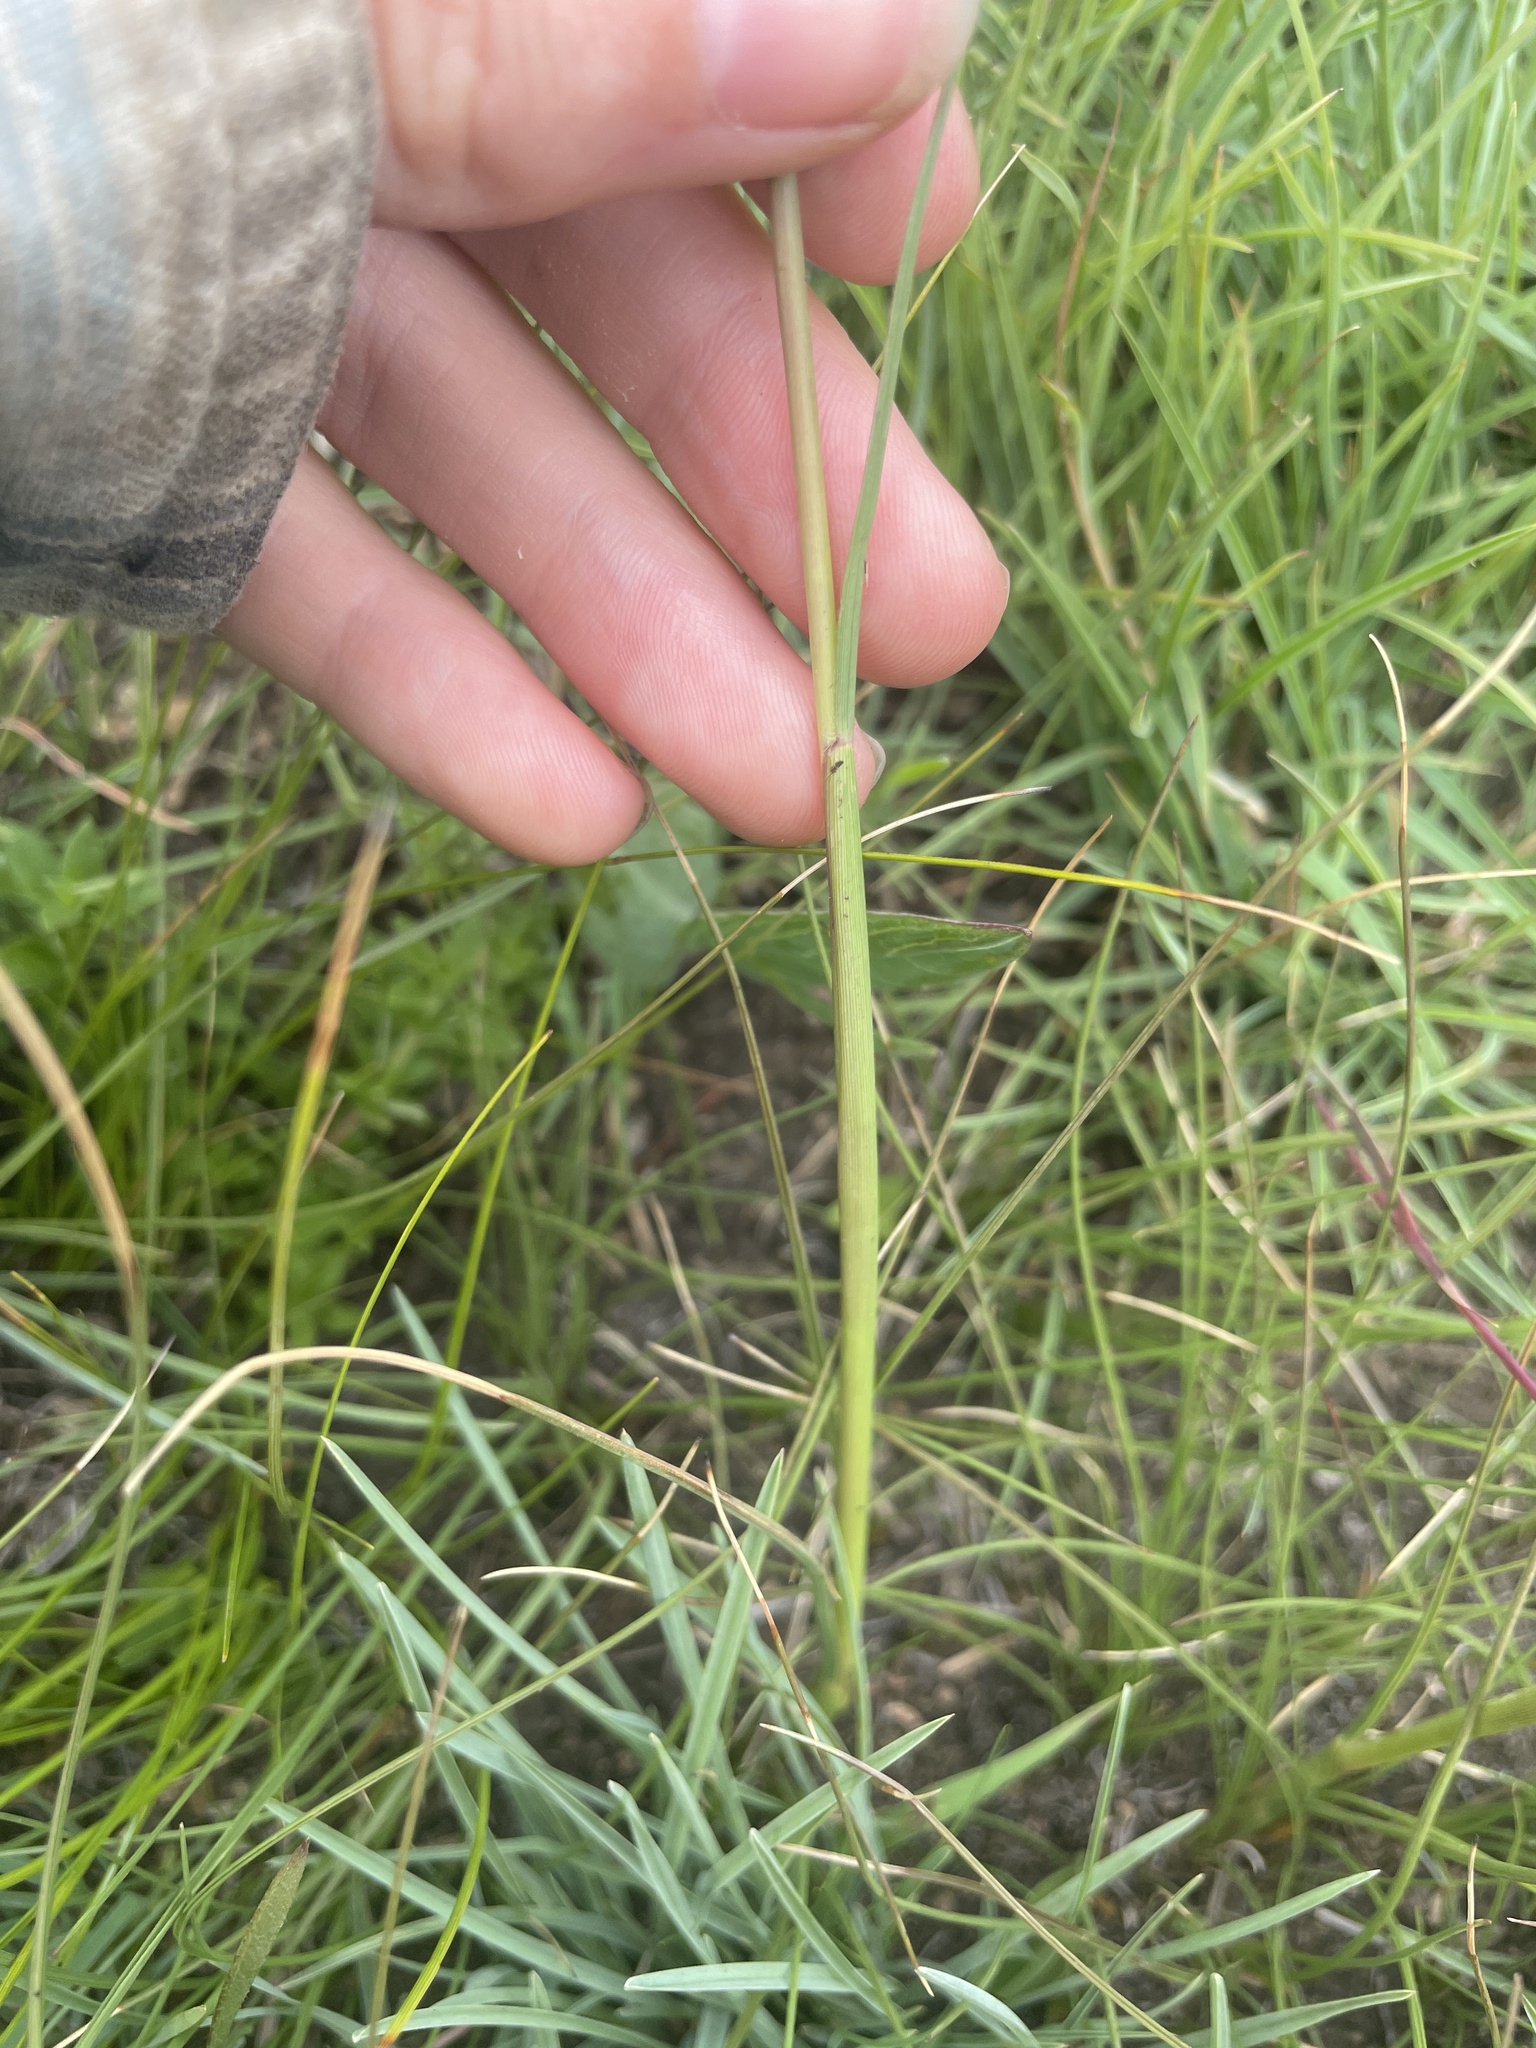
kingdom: Plantae
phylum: Tracheophyta
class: Liliopsida
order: Poales
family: Poaceae
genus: Sporobolus
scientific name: Sporobolus centrifugus
